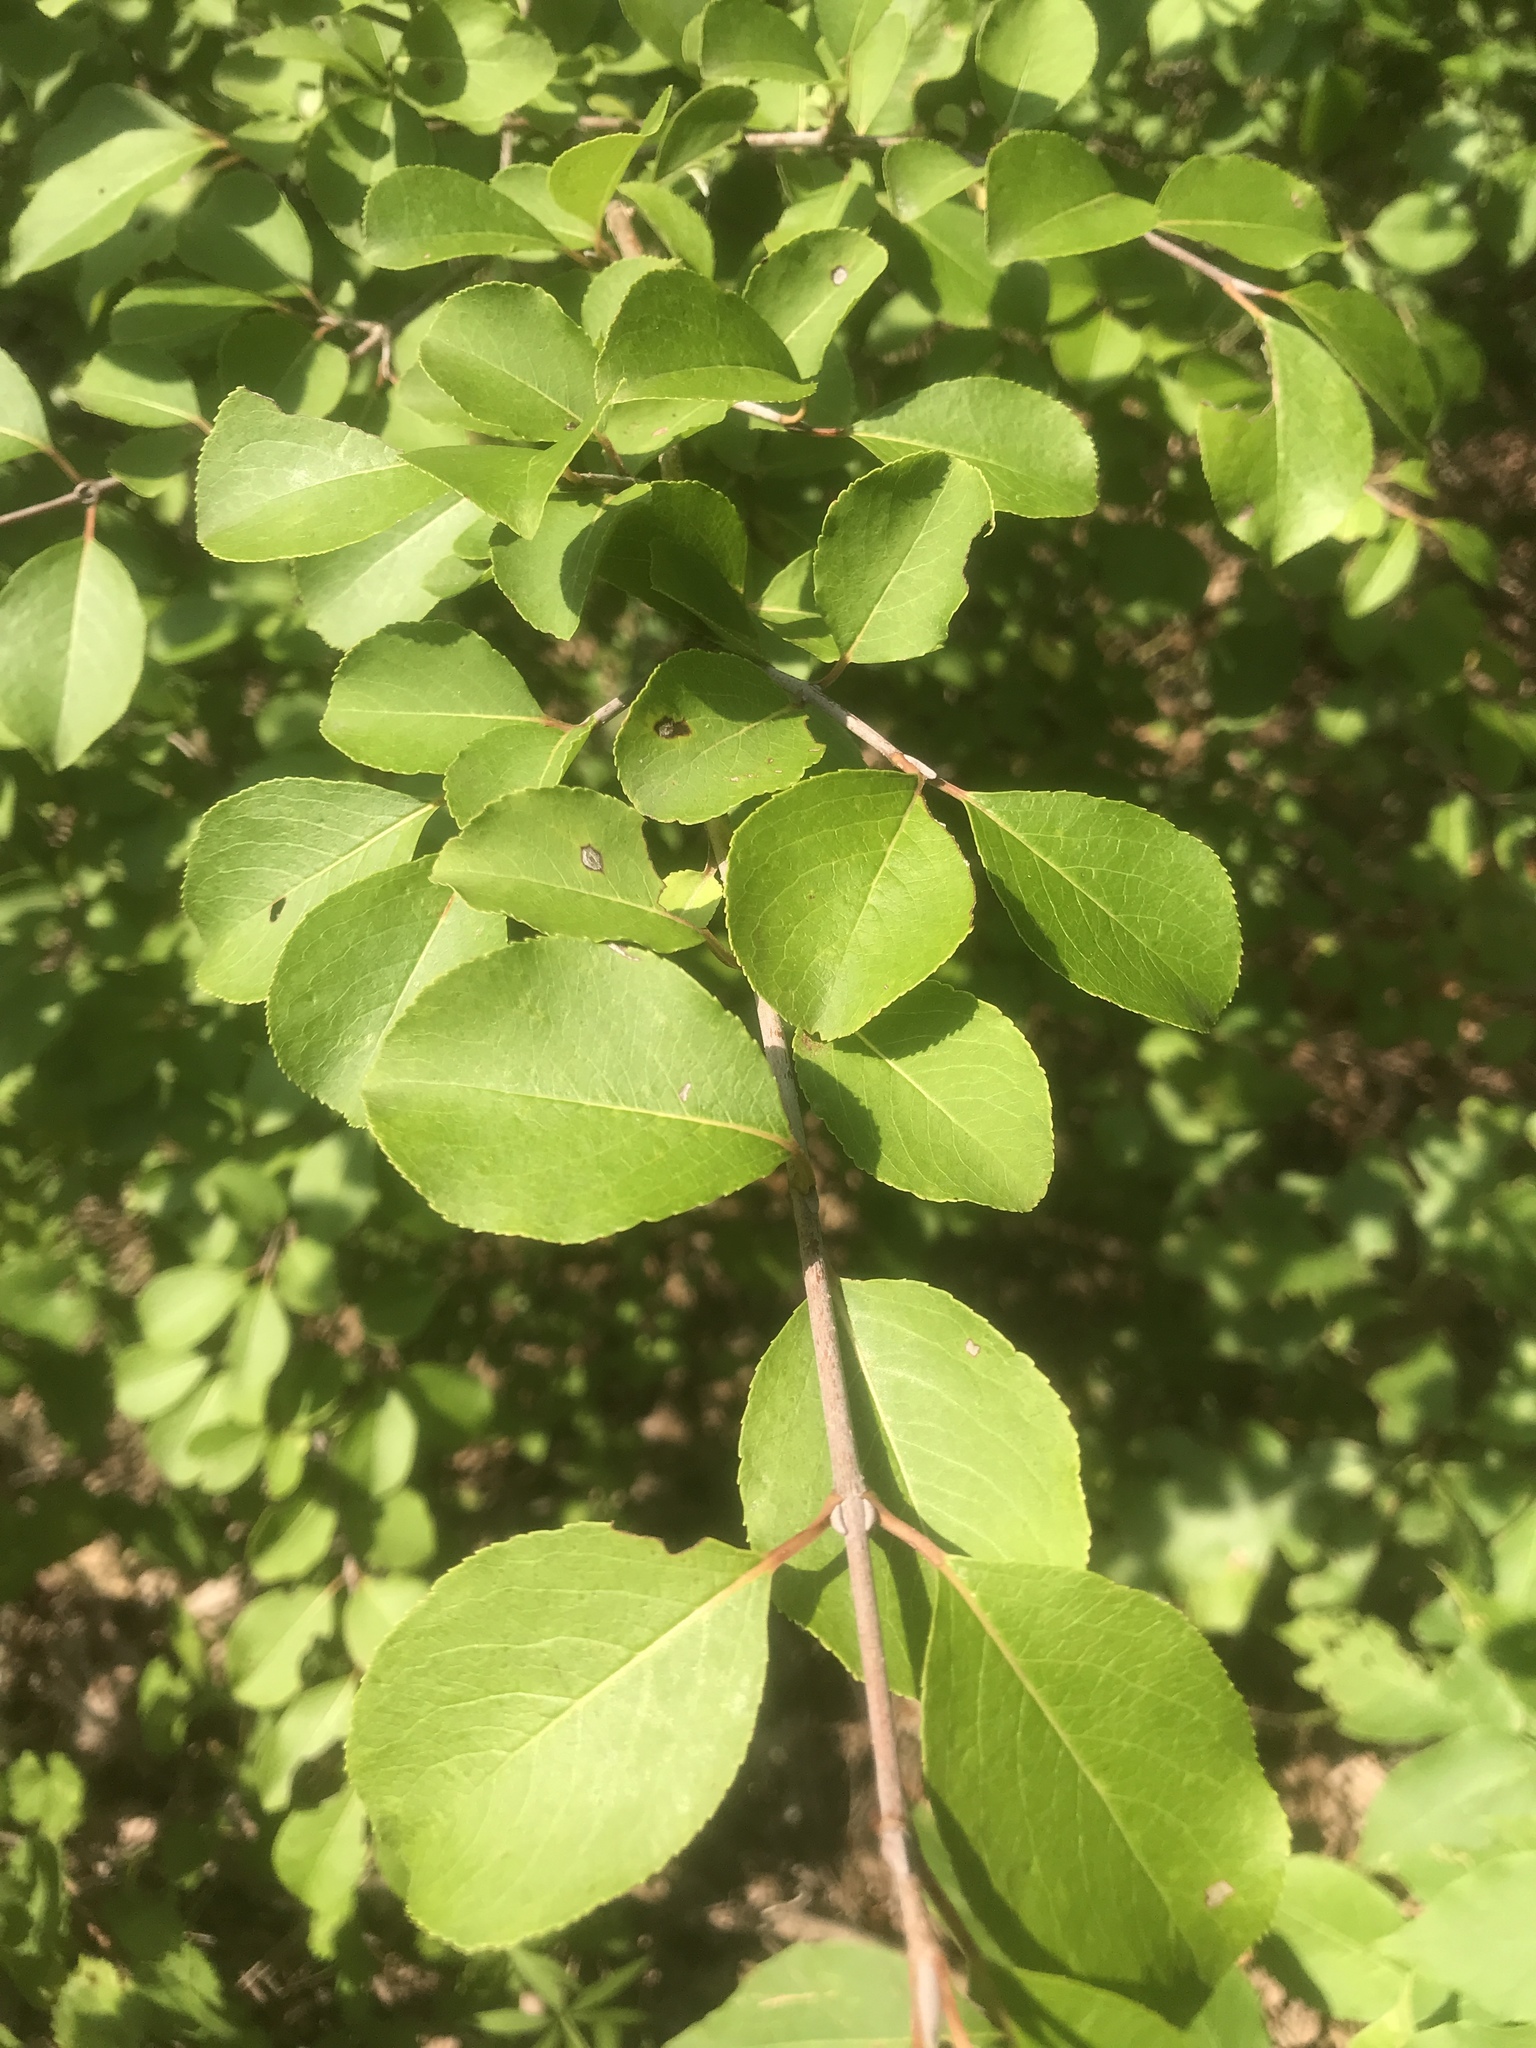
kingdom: Plantae
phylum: Tracheophyta
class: Magnoliopsida
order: Dipsacales
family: Viburnaceae
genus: Viburnum
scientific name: Viburnum prunifolium
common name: Black haw
